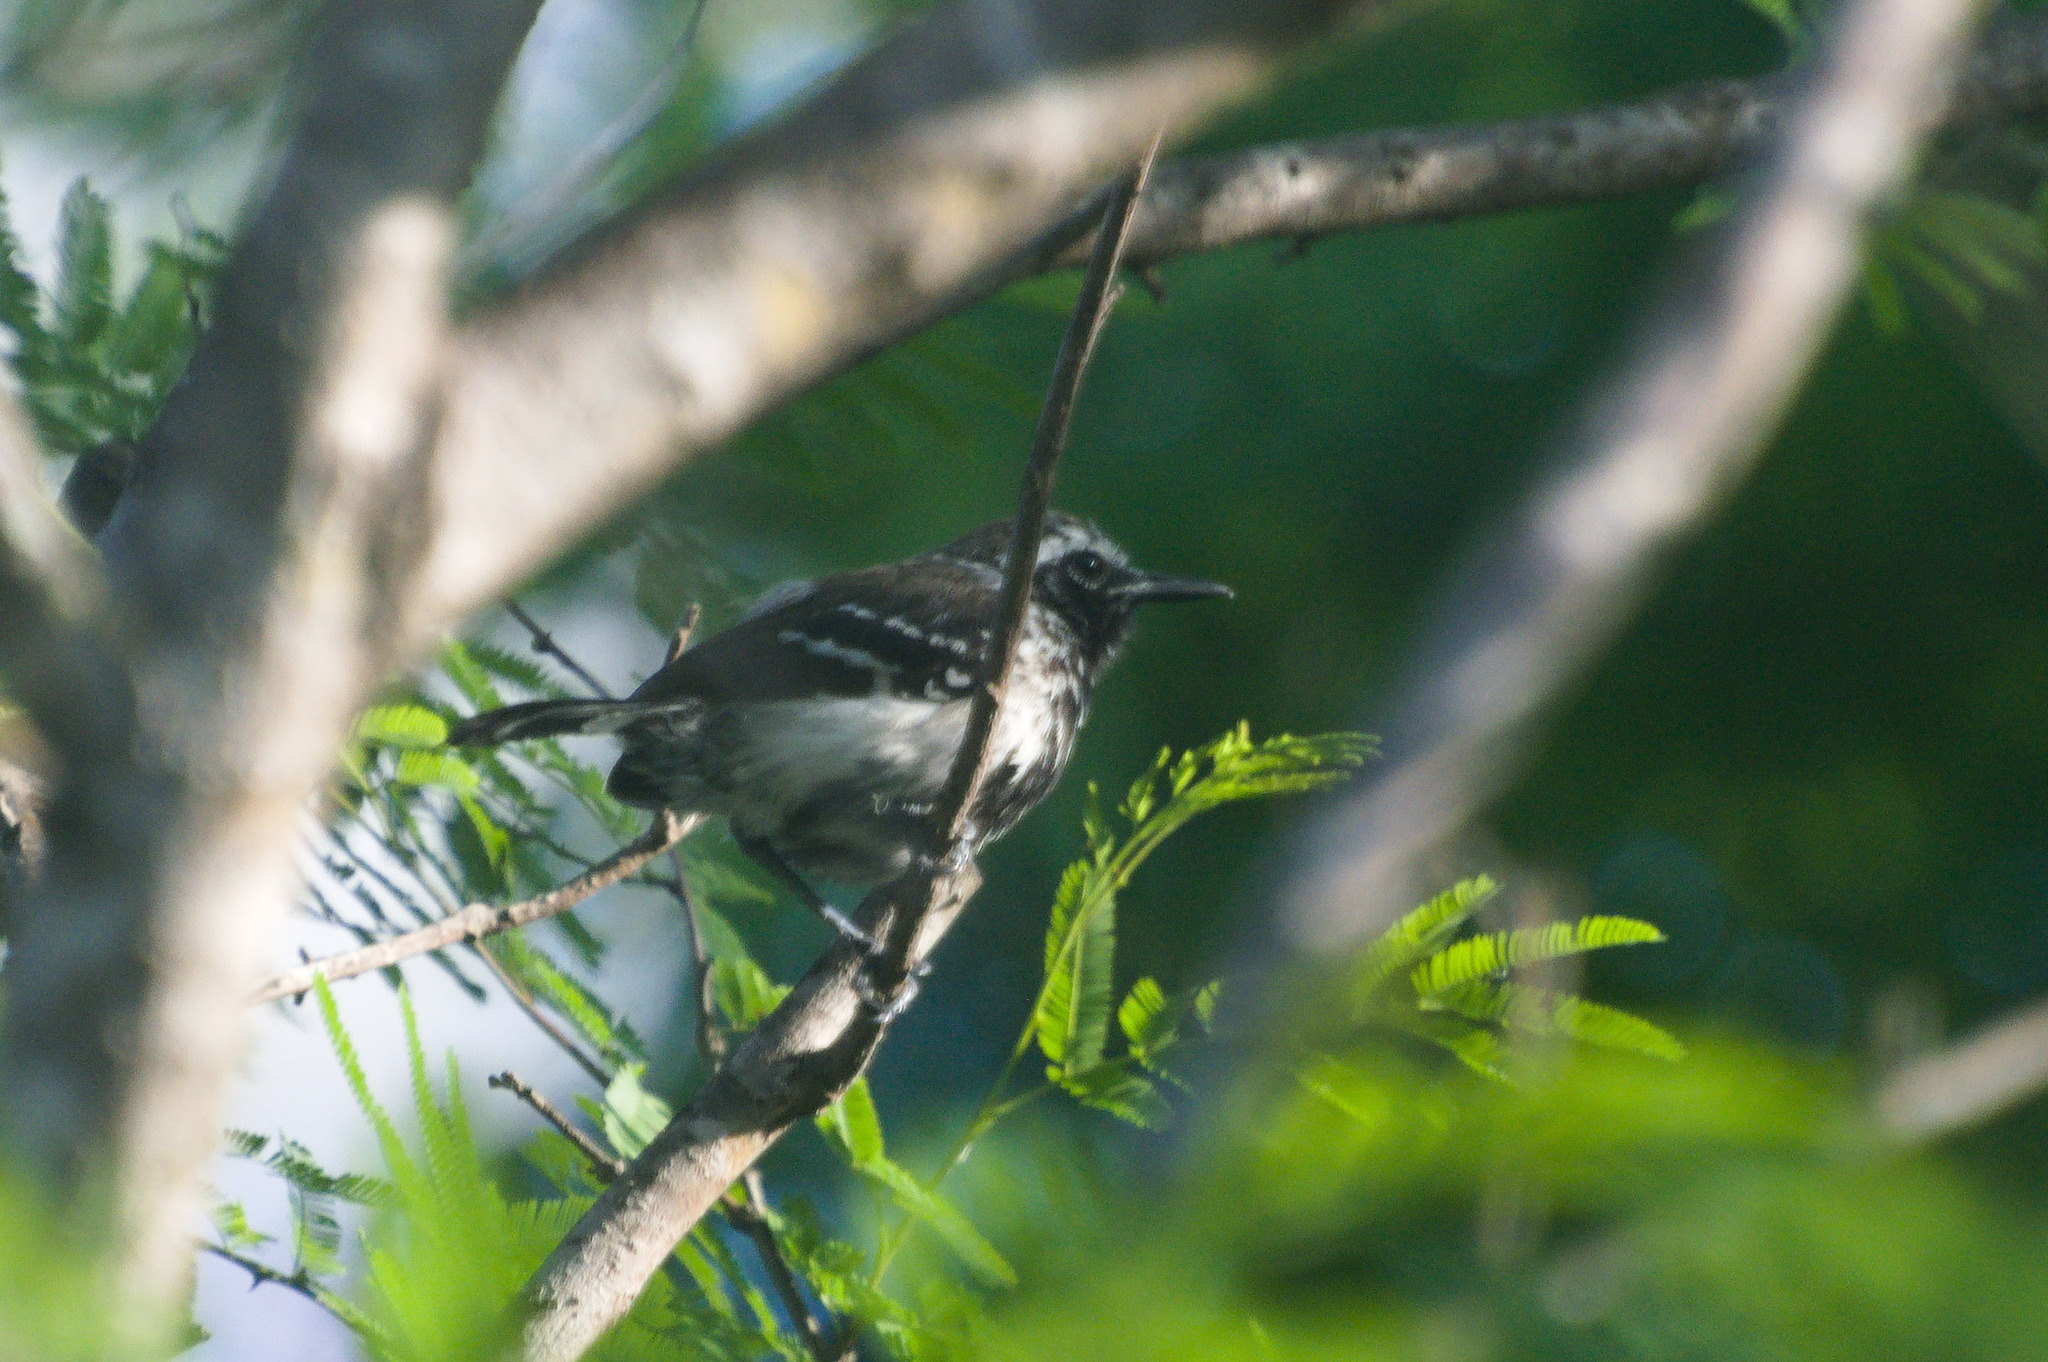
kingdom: Animalia
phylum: Chordata
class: Aves
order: Passeriformes
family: Thamnophilidae
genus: Formicivora
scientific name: Formicivora intermedia
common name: Northern white-fringed antwren
